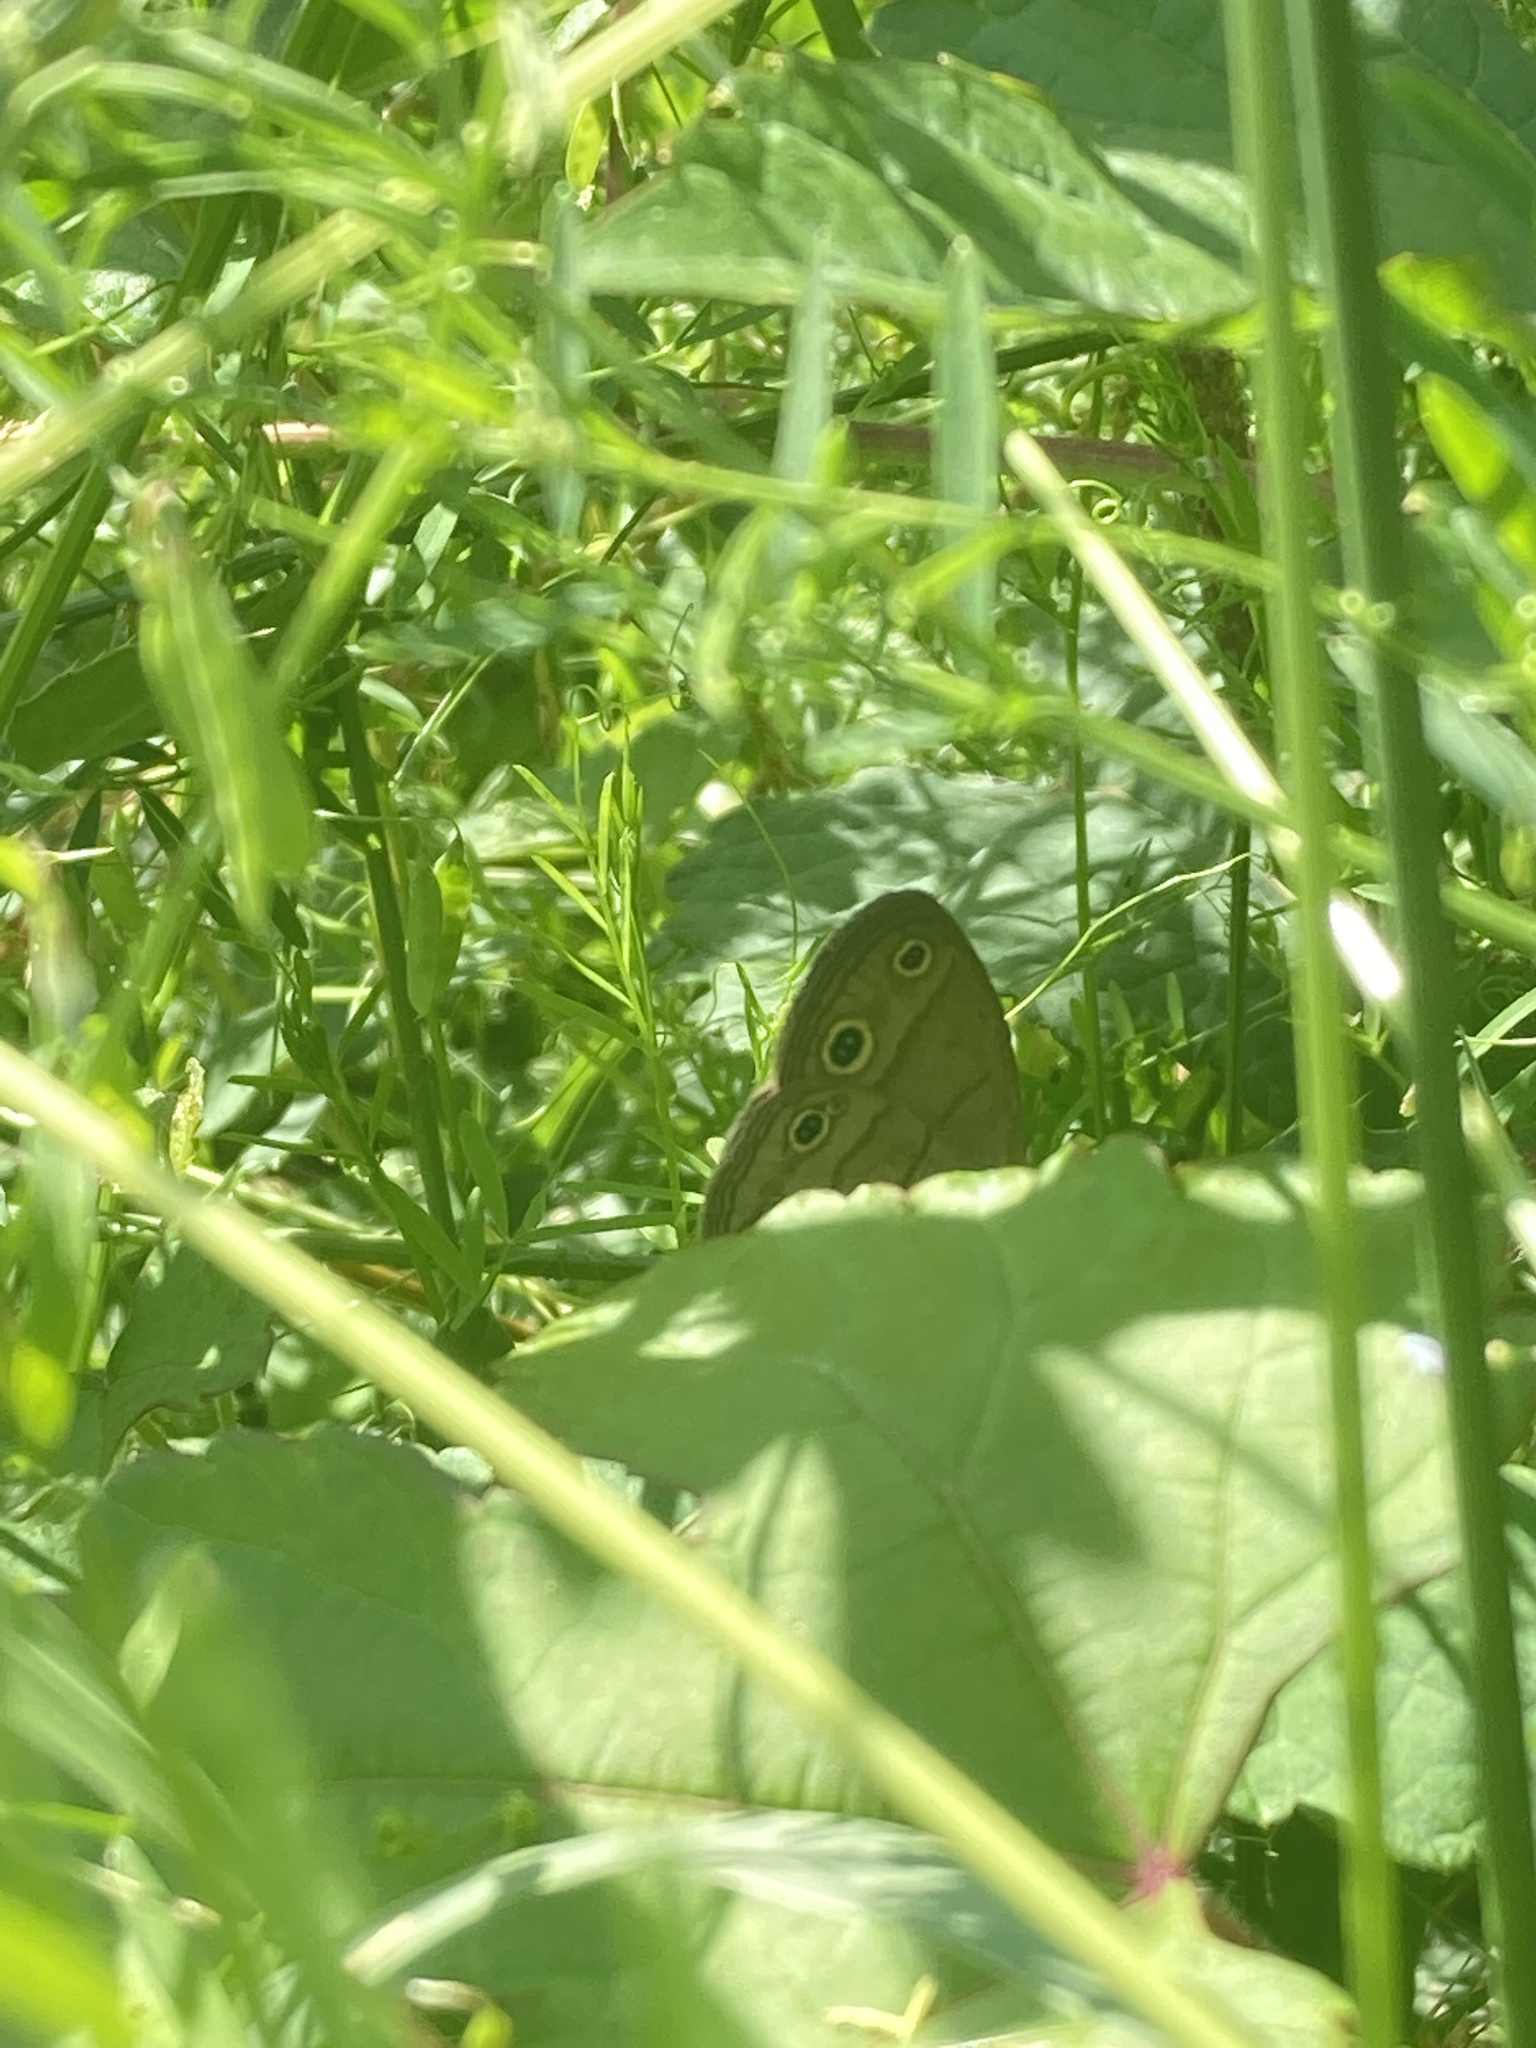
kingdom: Animalia
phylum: Arthropoda
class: Insecta
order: Lepidoptera
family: Nymphalidae
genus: Euptychia
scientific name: Euptychia cymela
